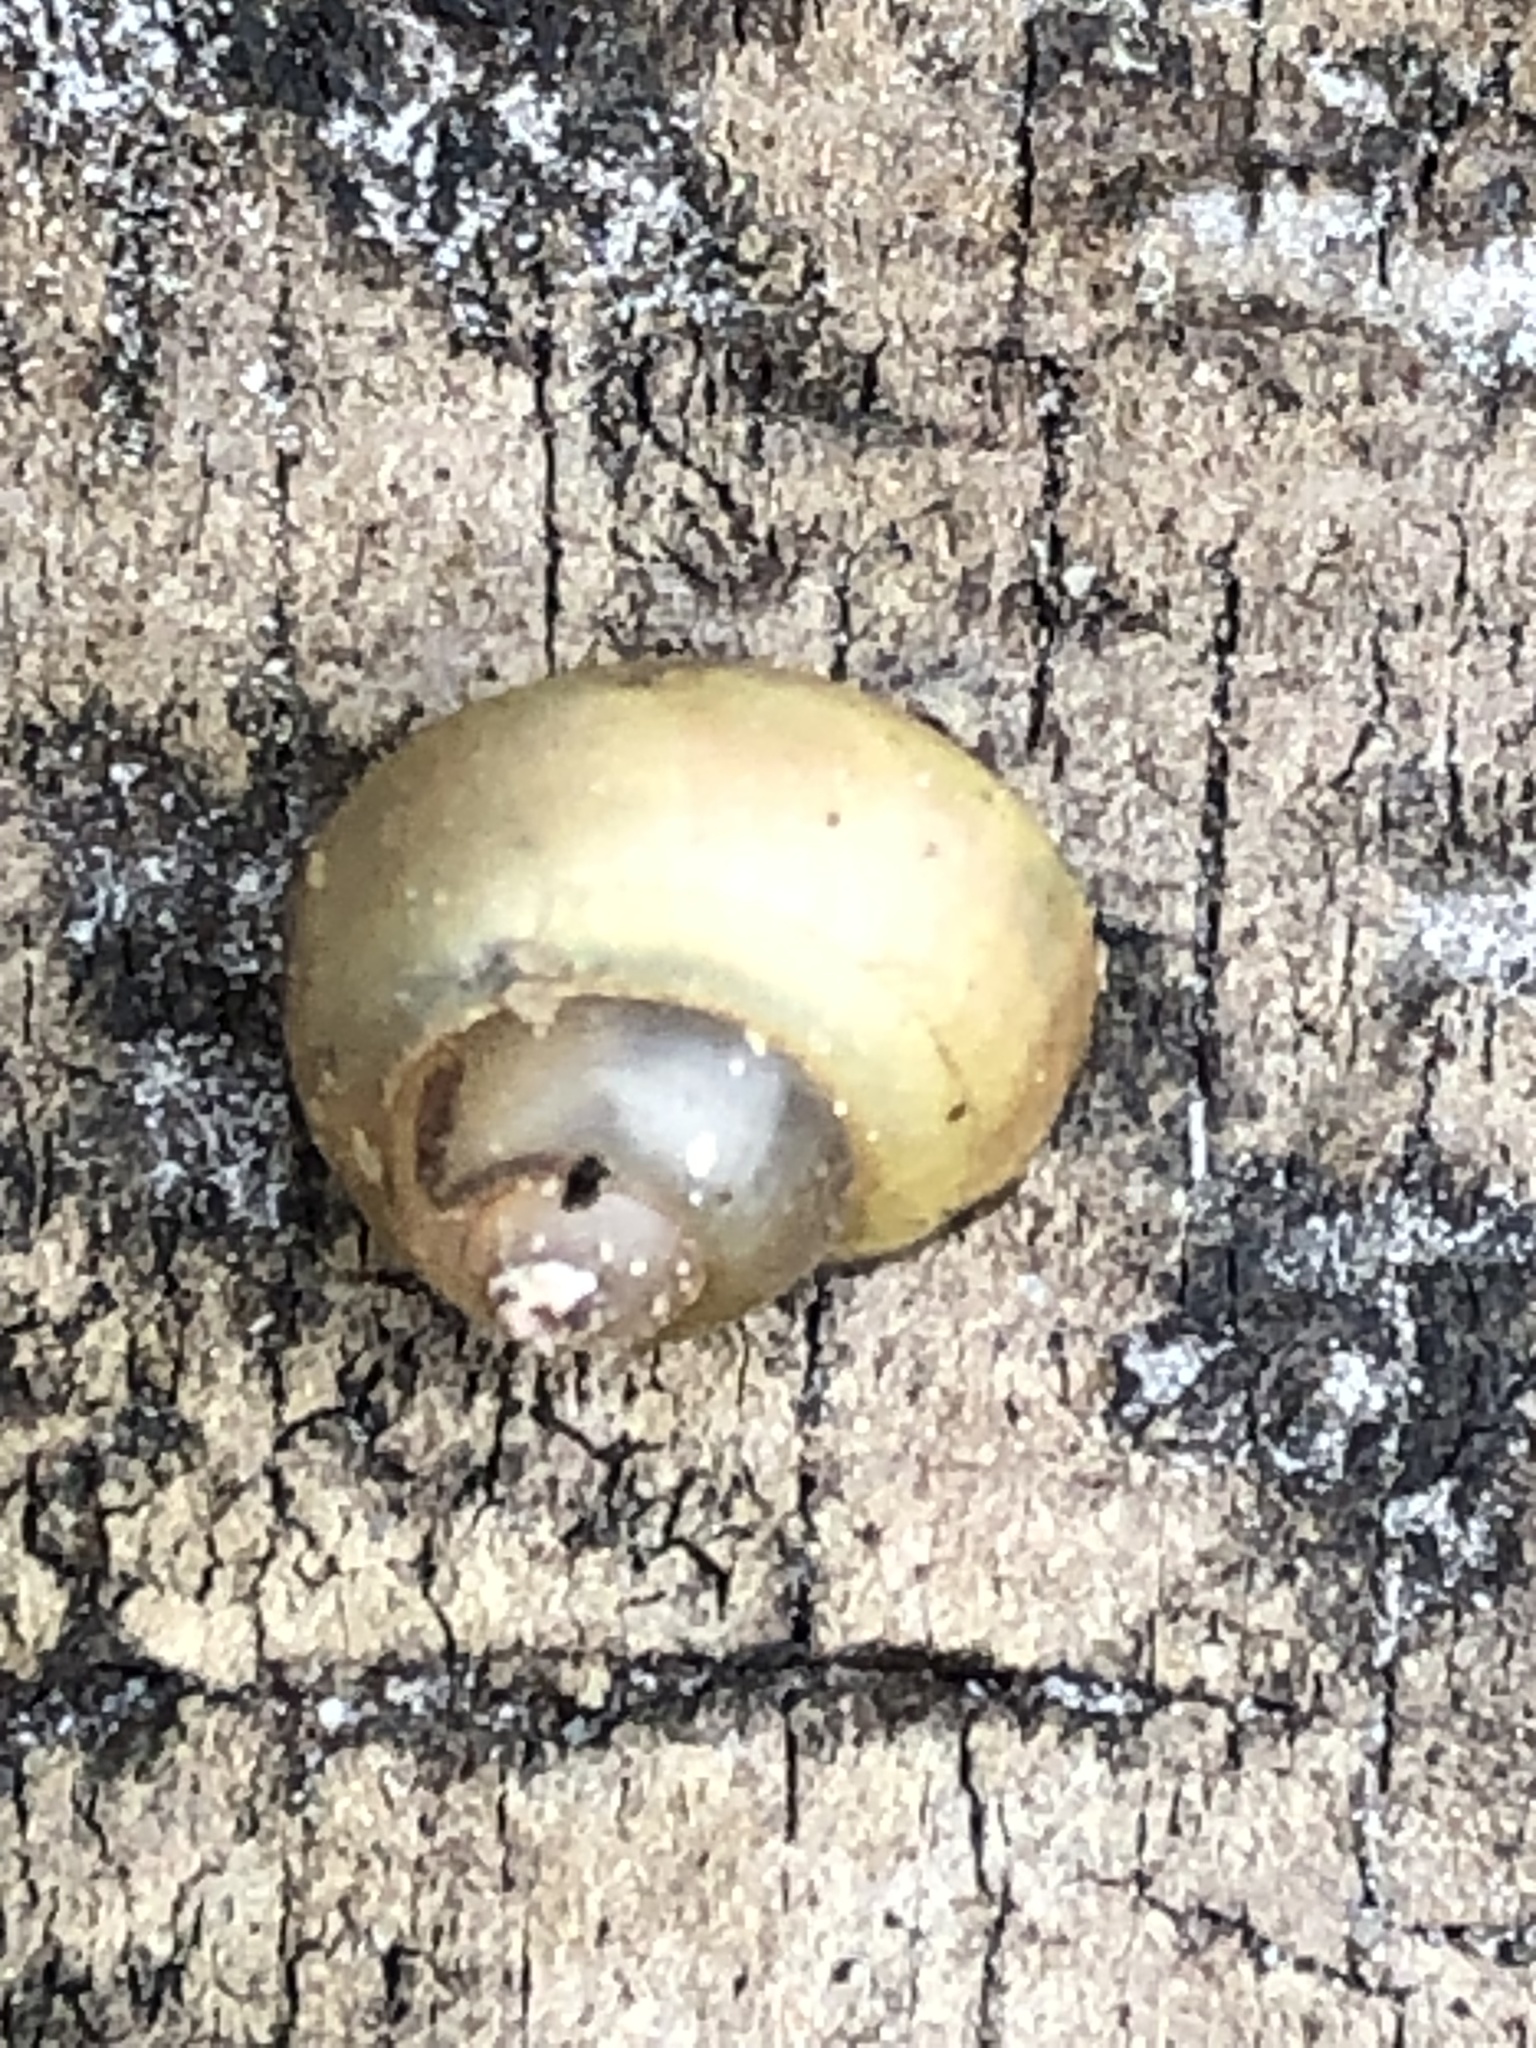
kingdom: Animalia
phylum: Mollusca
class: Gastropoda
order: Architaenioglossa
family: Viviparidae
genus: Cipangopaludina
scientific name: Cipangopaludina chinensis
